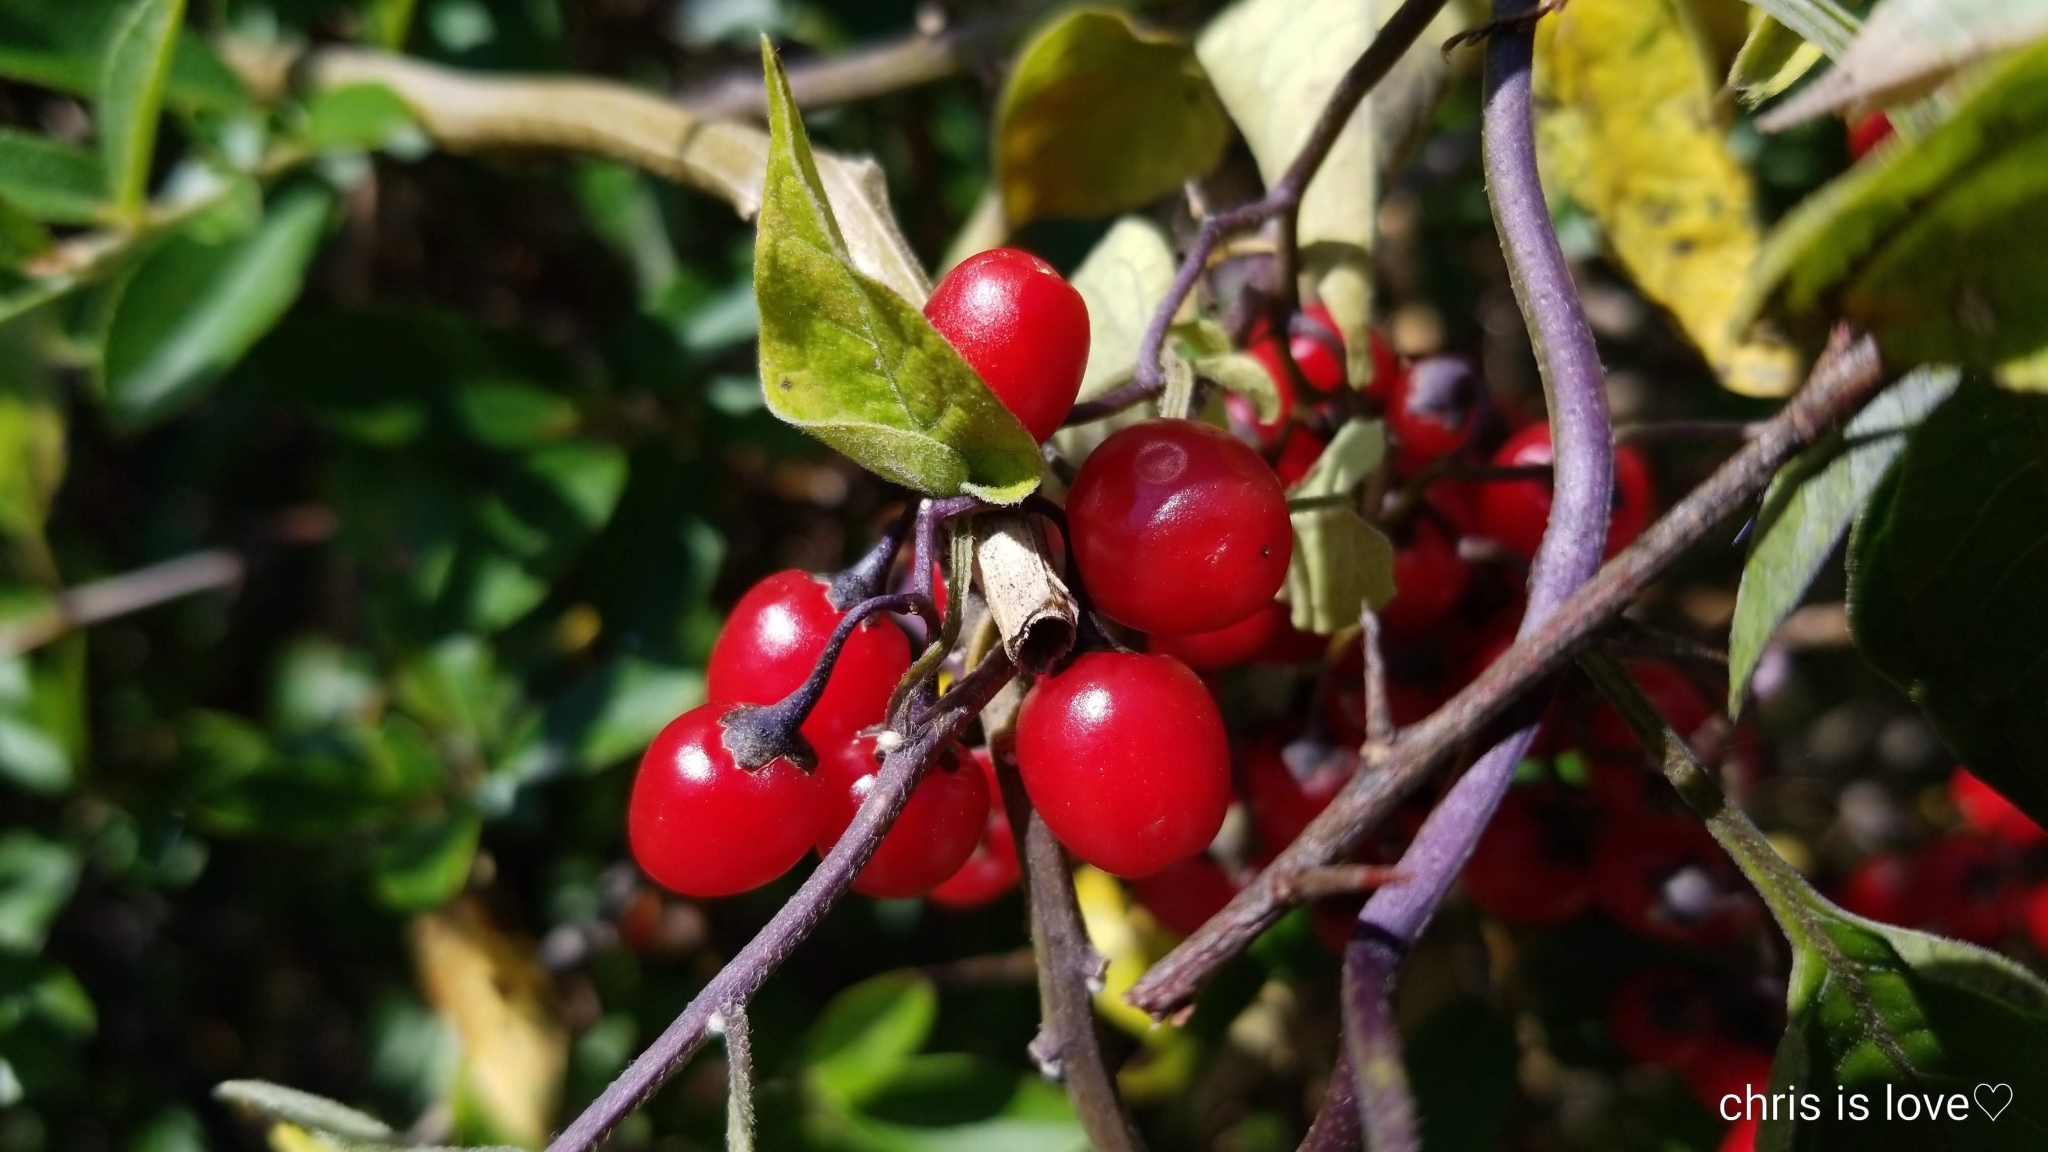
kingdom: Plantae
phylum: Tracheophyta
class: Magnoliopsida
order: Solanales
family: Solanaceae
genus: Solanum
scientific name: Solanum dulcamara
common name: Climbing nightshade
